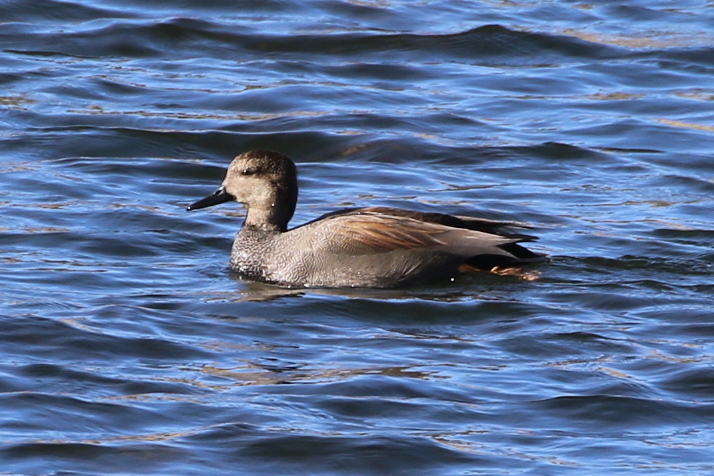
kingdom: Animalia
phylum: Chordata
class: Aves
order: Anseriformes
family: Anatidae
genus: Mareca
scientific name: Mareca strepera
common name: Gadwall
